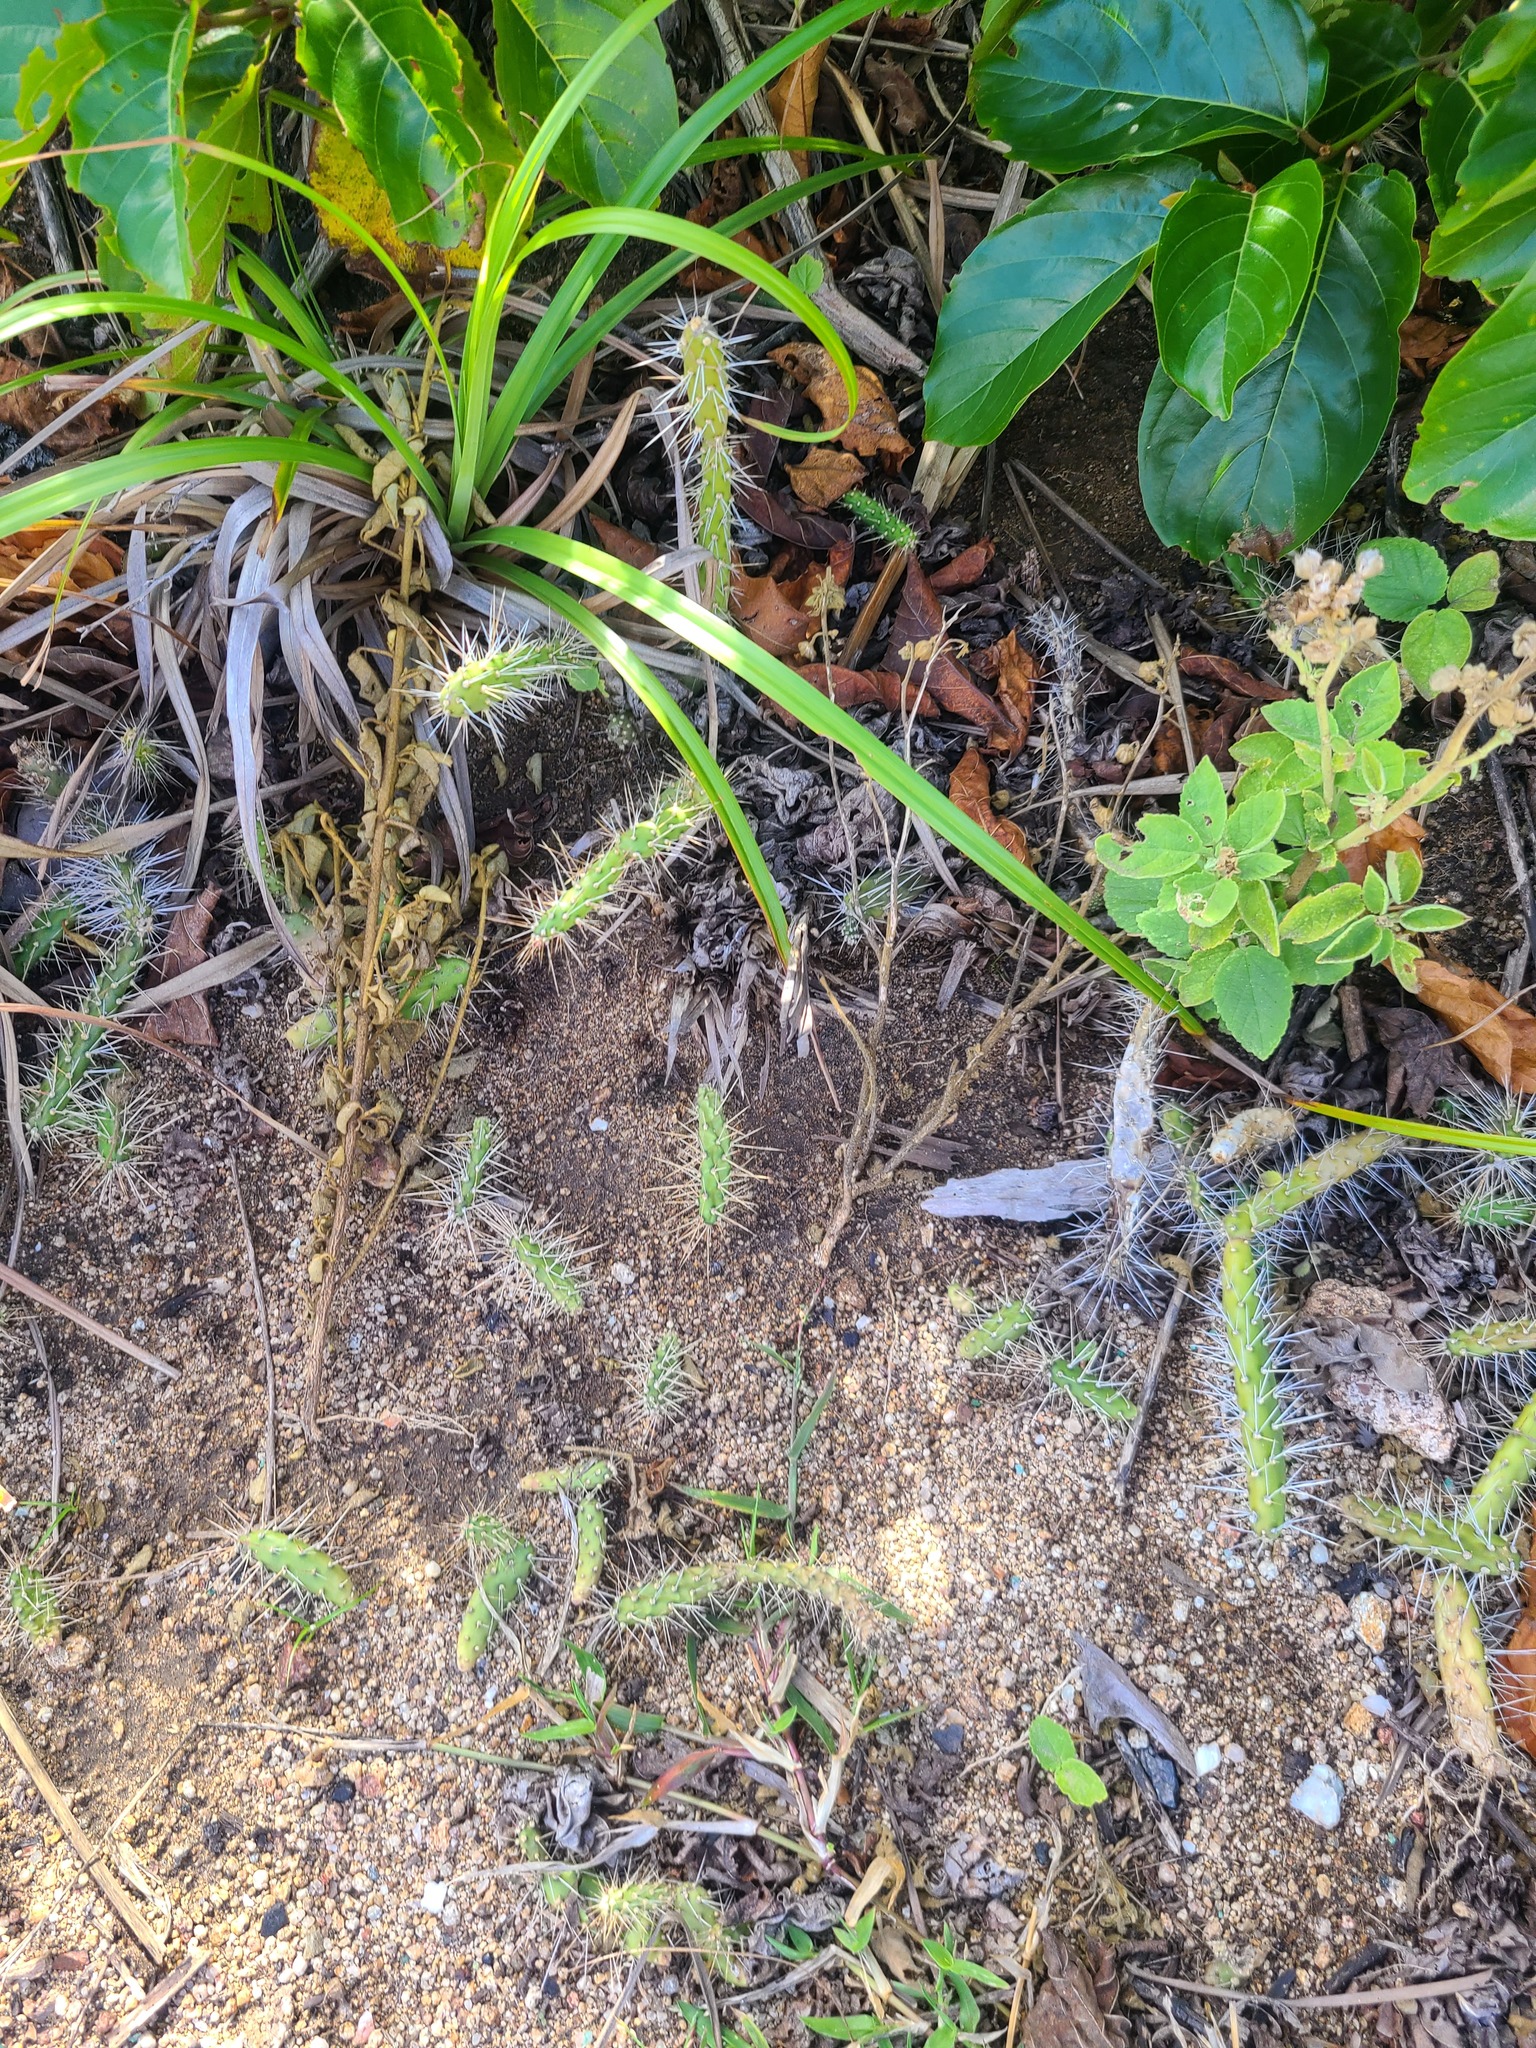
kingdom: Plantae
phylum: Tracheophyta
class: Magnoliopsida
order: Caryophyllales
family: Cactaceae
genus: Opuntia
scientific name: Opuntia repens
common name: Roving pricklypear
